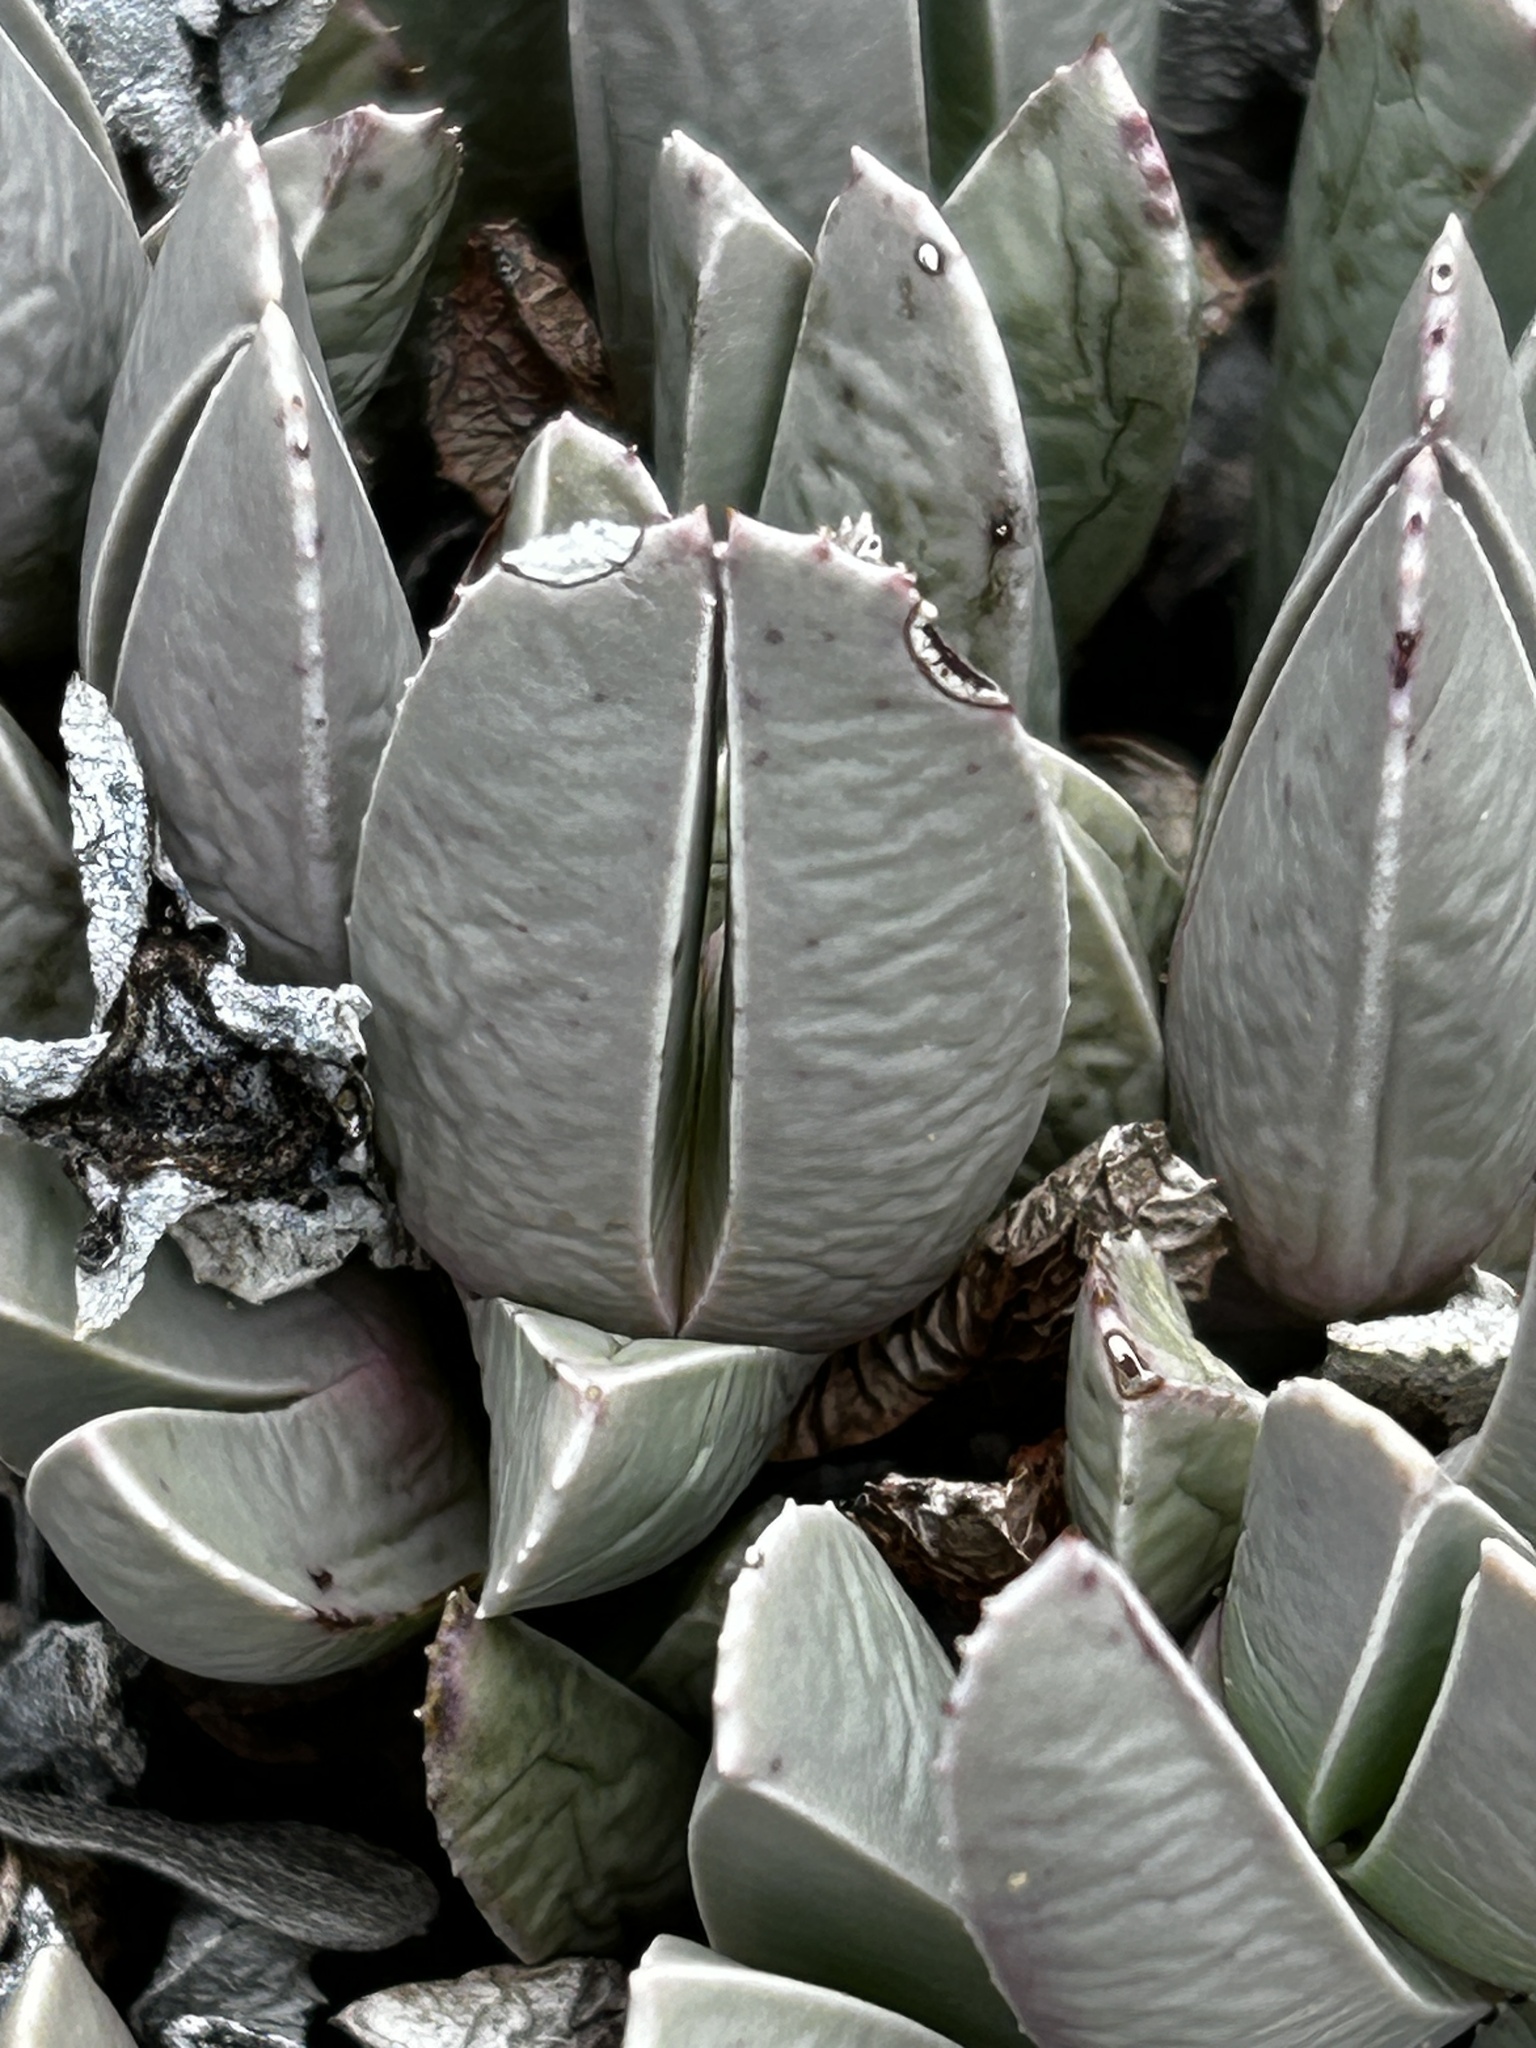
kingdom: Plantae
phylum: Tracheophyta
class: Magnoliopsida
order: Caryophyllales
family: Aizoaceae
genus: Acrodon
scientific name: Acrodon bellidiflorus
